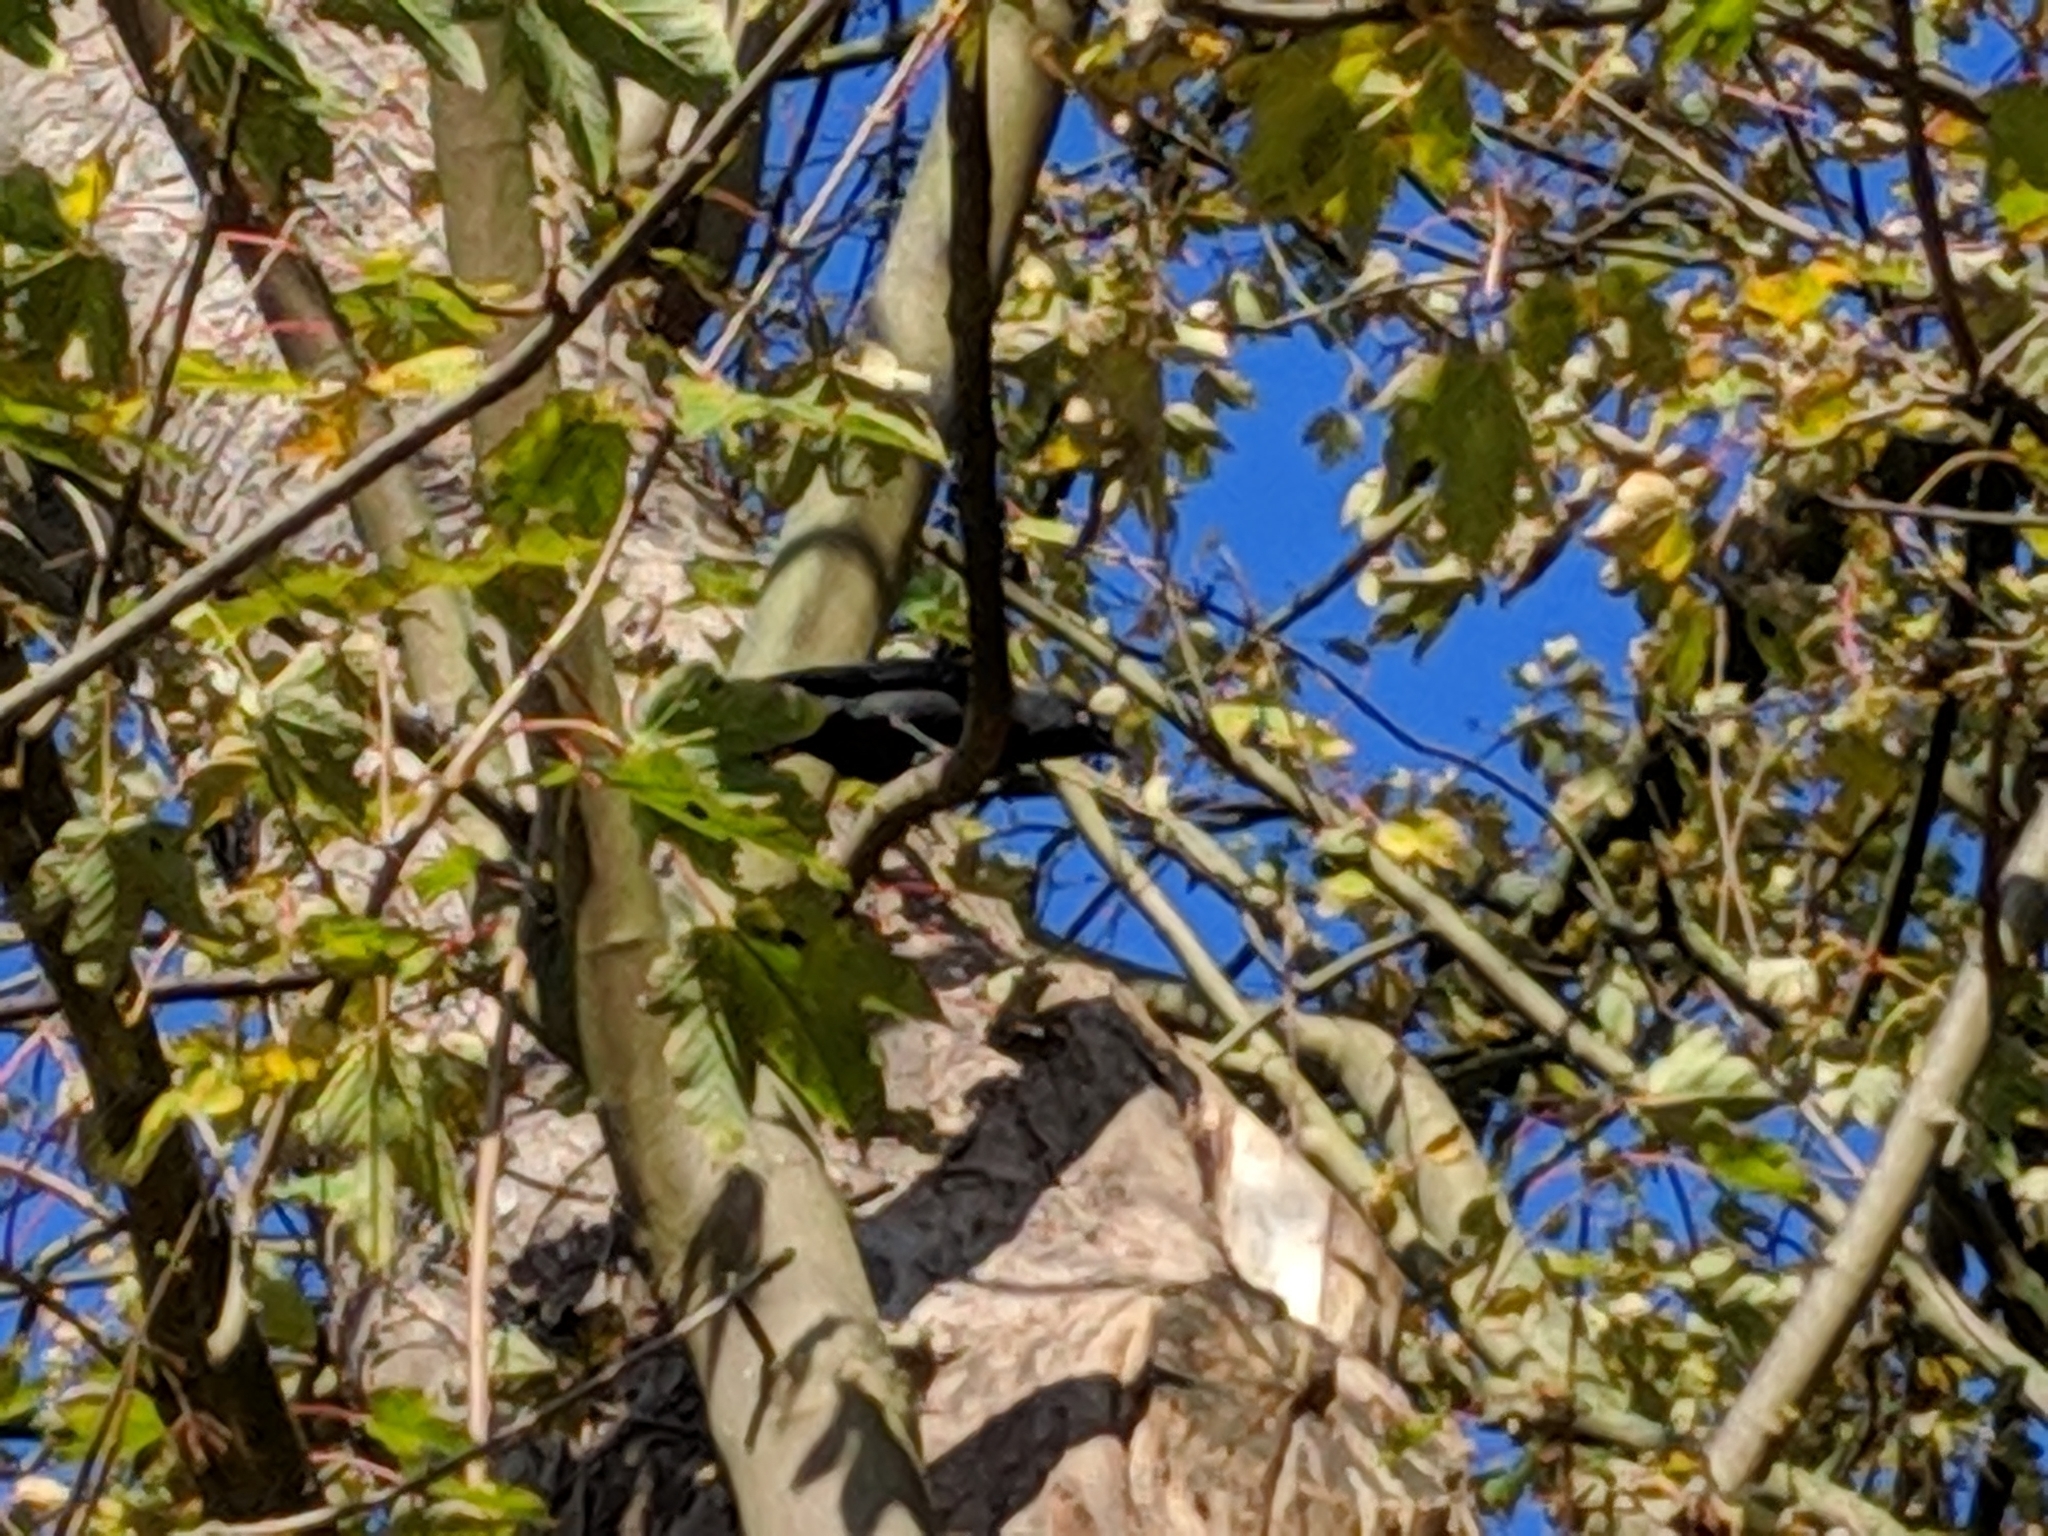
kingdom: Animalia
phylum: Chordata
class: Aves
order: Passeriformes
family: Corvidae
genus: Coloeus
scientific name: Coloeus monedula
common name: Western jackdaw
